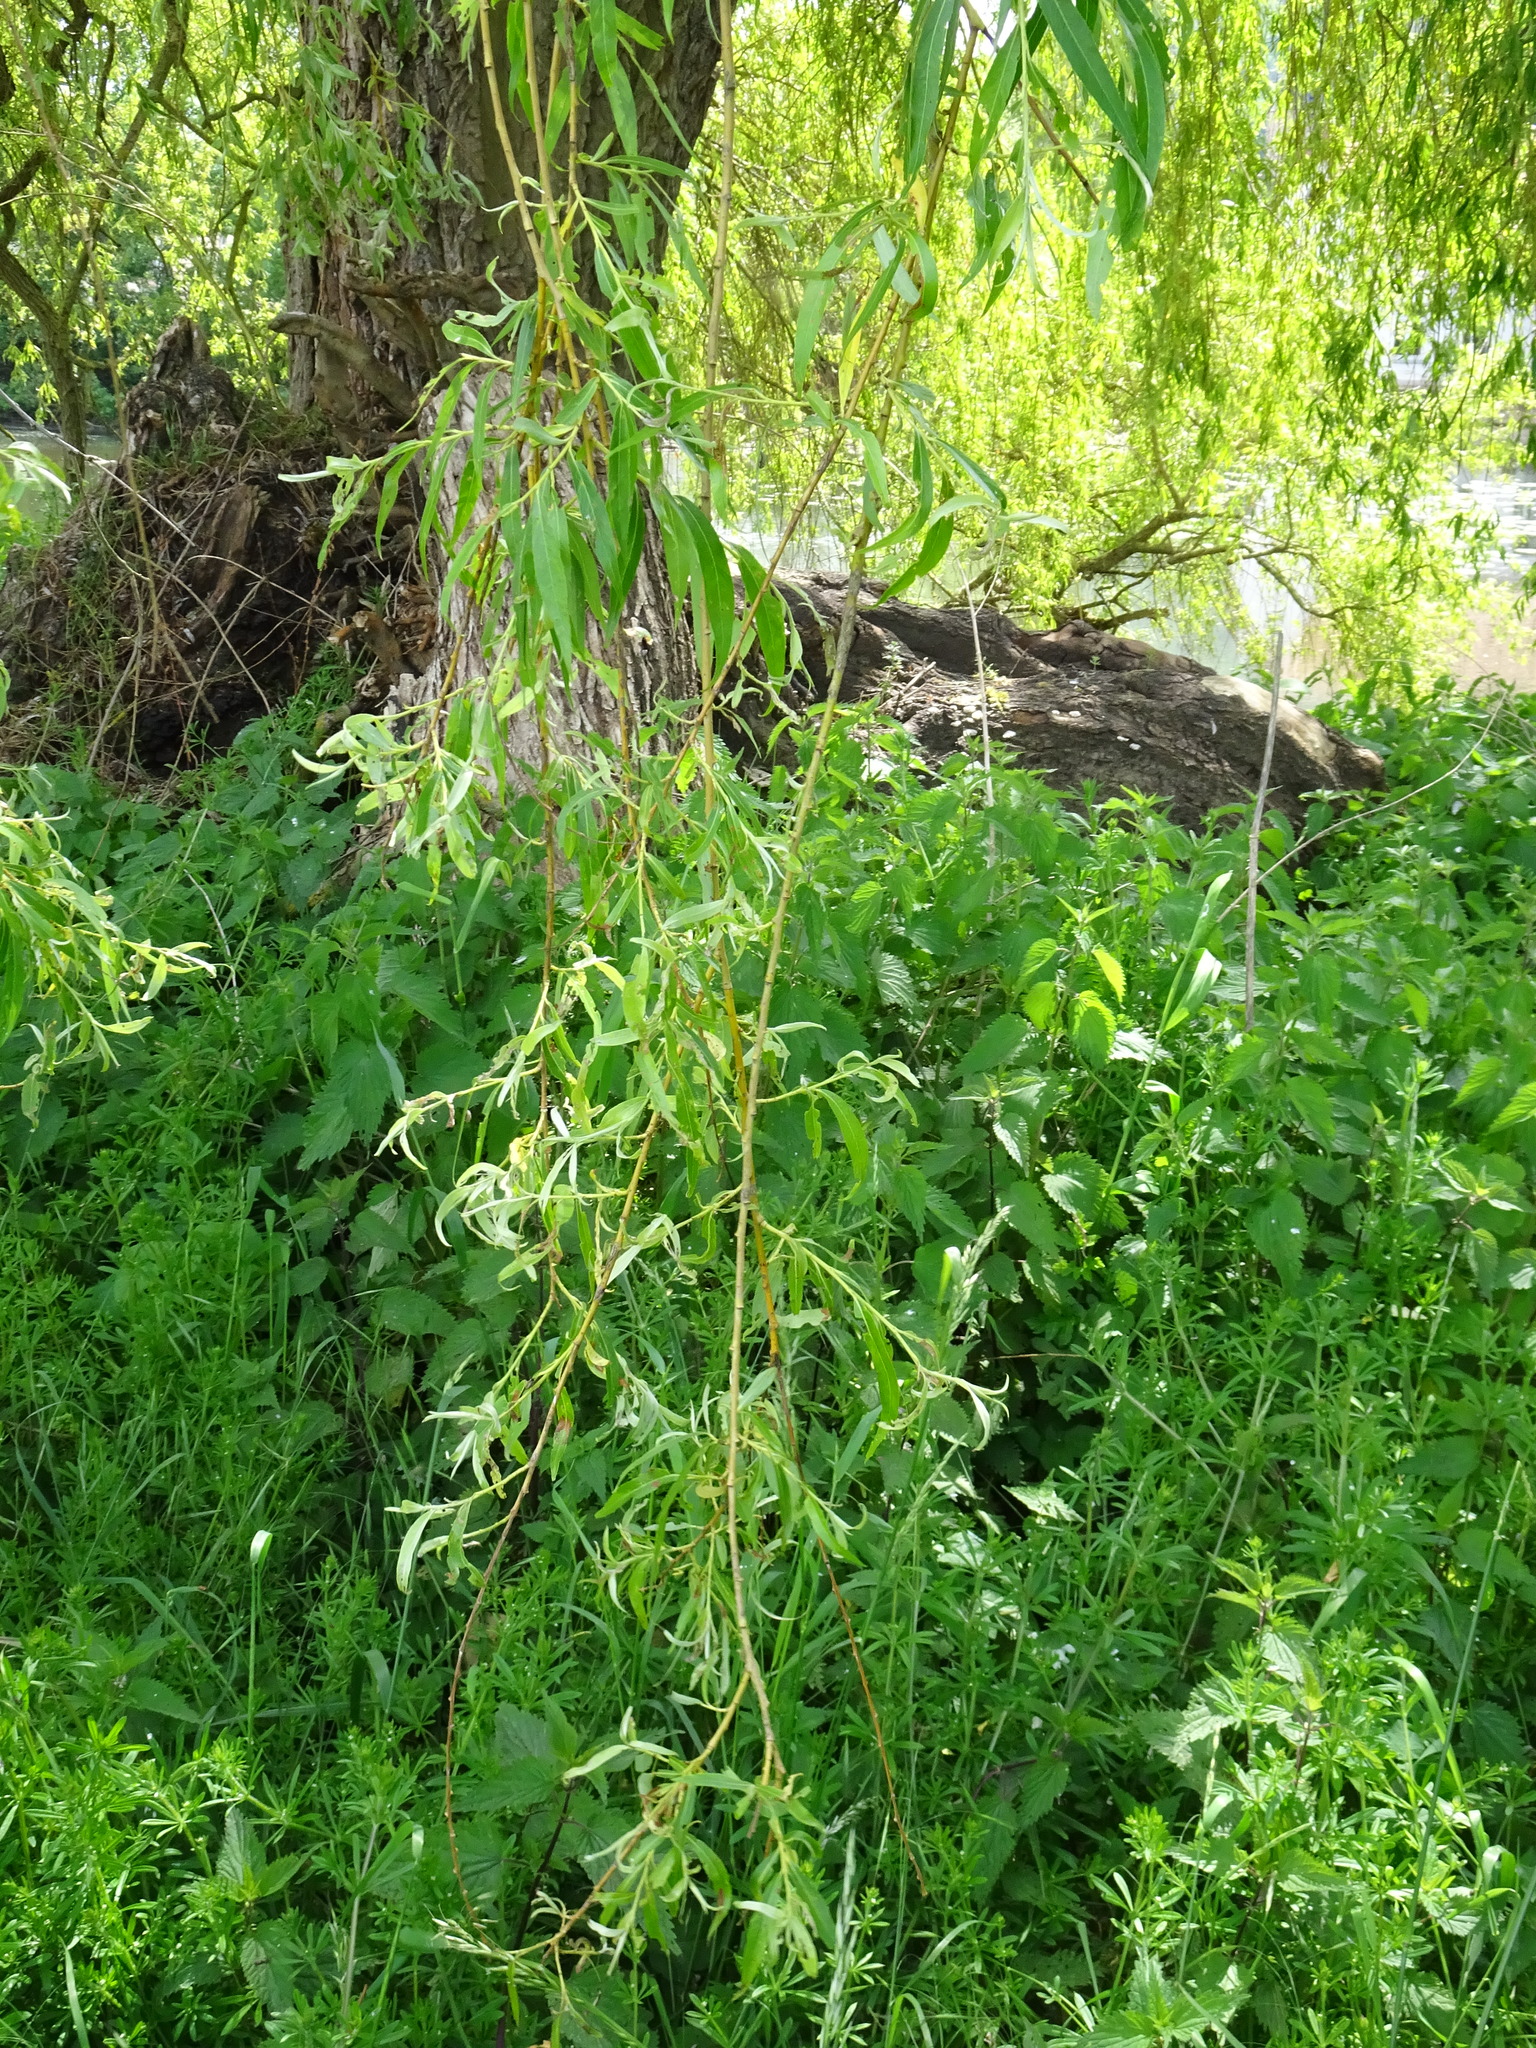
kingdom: Plantae
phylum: Tracheophyta
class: Magnoliopsida
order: Malpighiales
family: Salicaceae
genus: Salix
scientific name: Salix pendulina
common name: Wisconsin weeping willow
